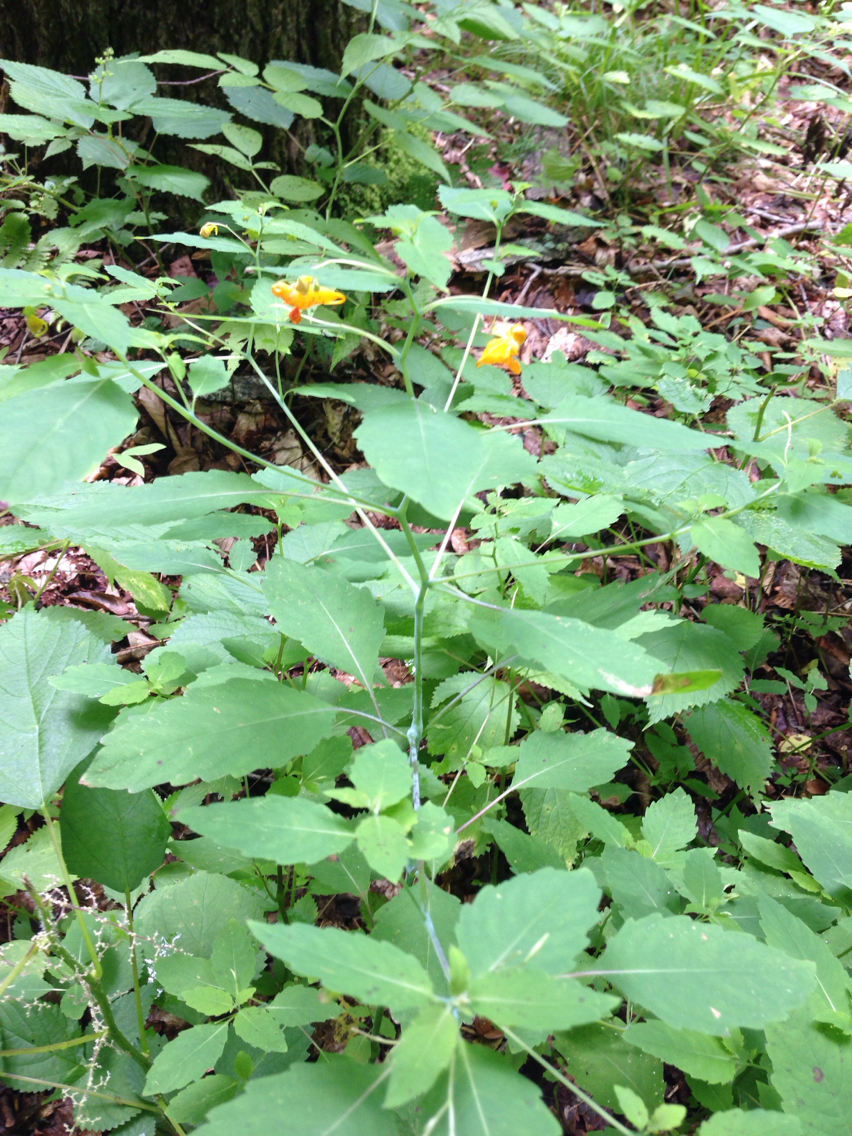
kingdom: Plantae
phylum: Tracheophyta
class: Magnoliopsida
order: Ericales
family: Balsaminaceae
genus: Impatiens
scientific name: Impatiens capensis
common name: Orange balsam
